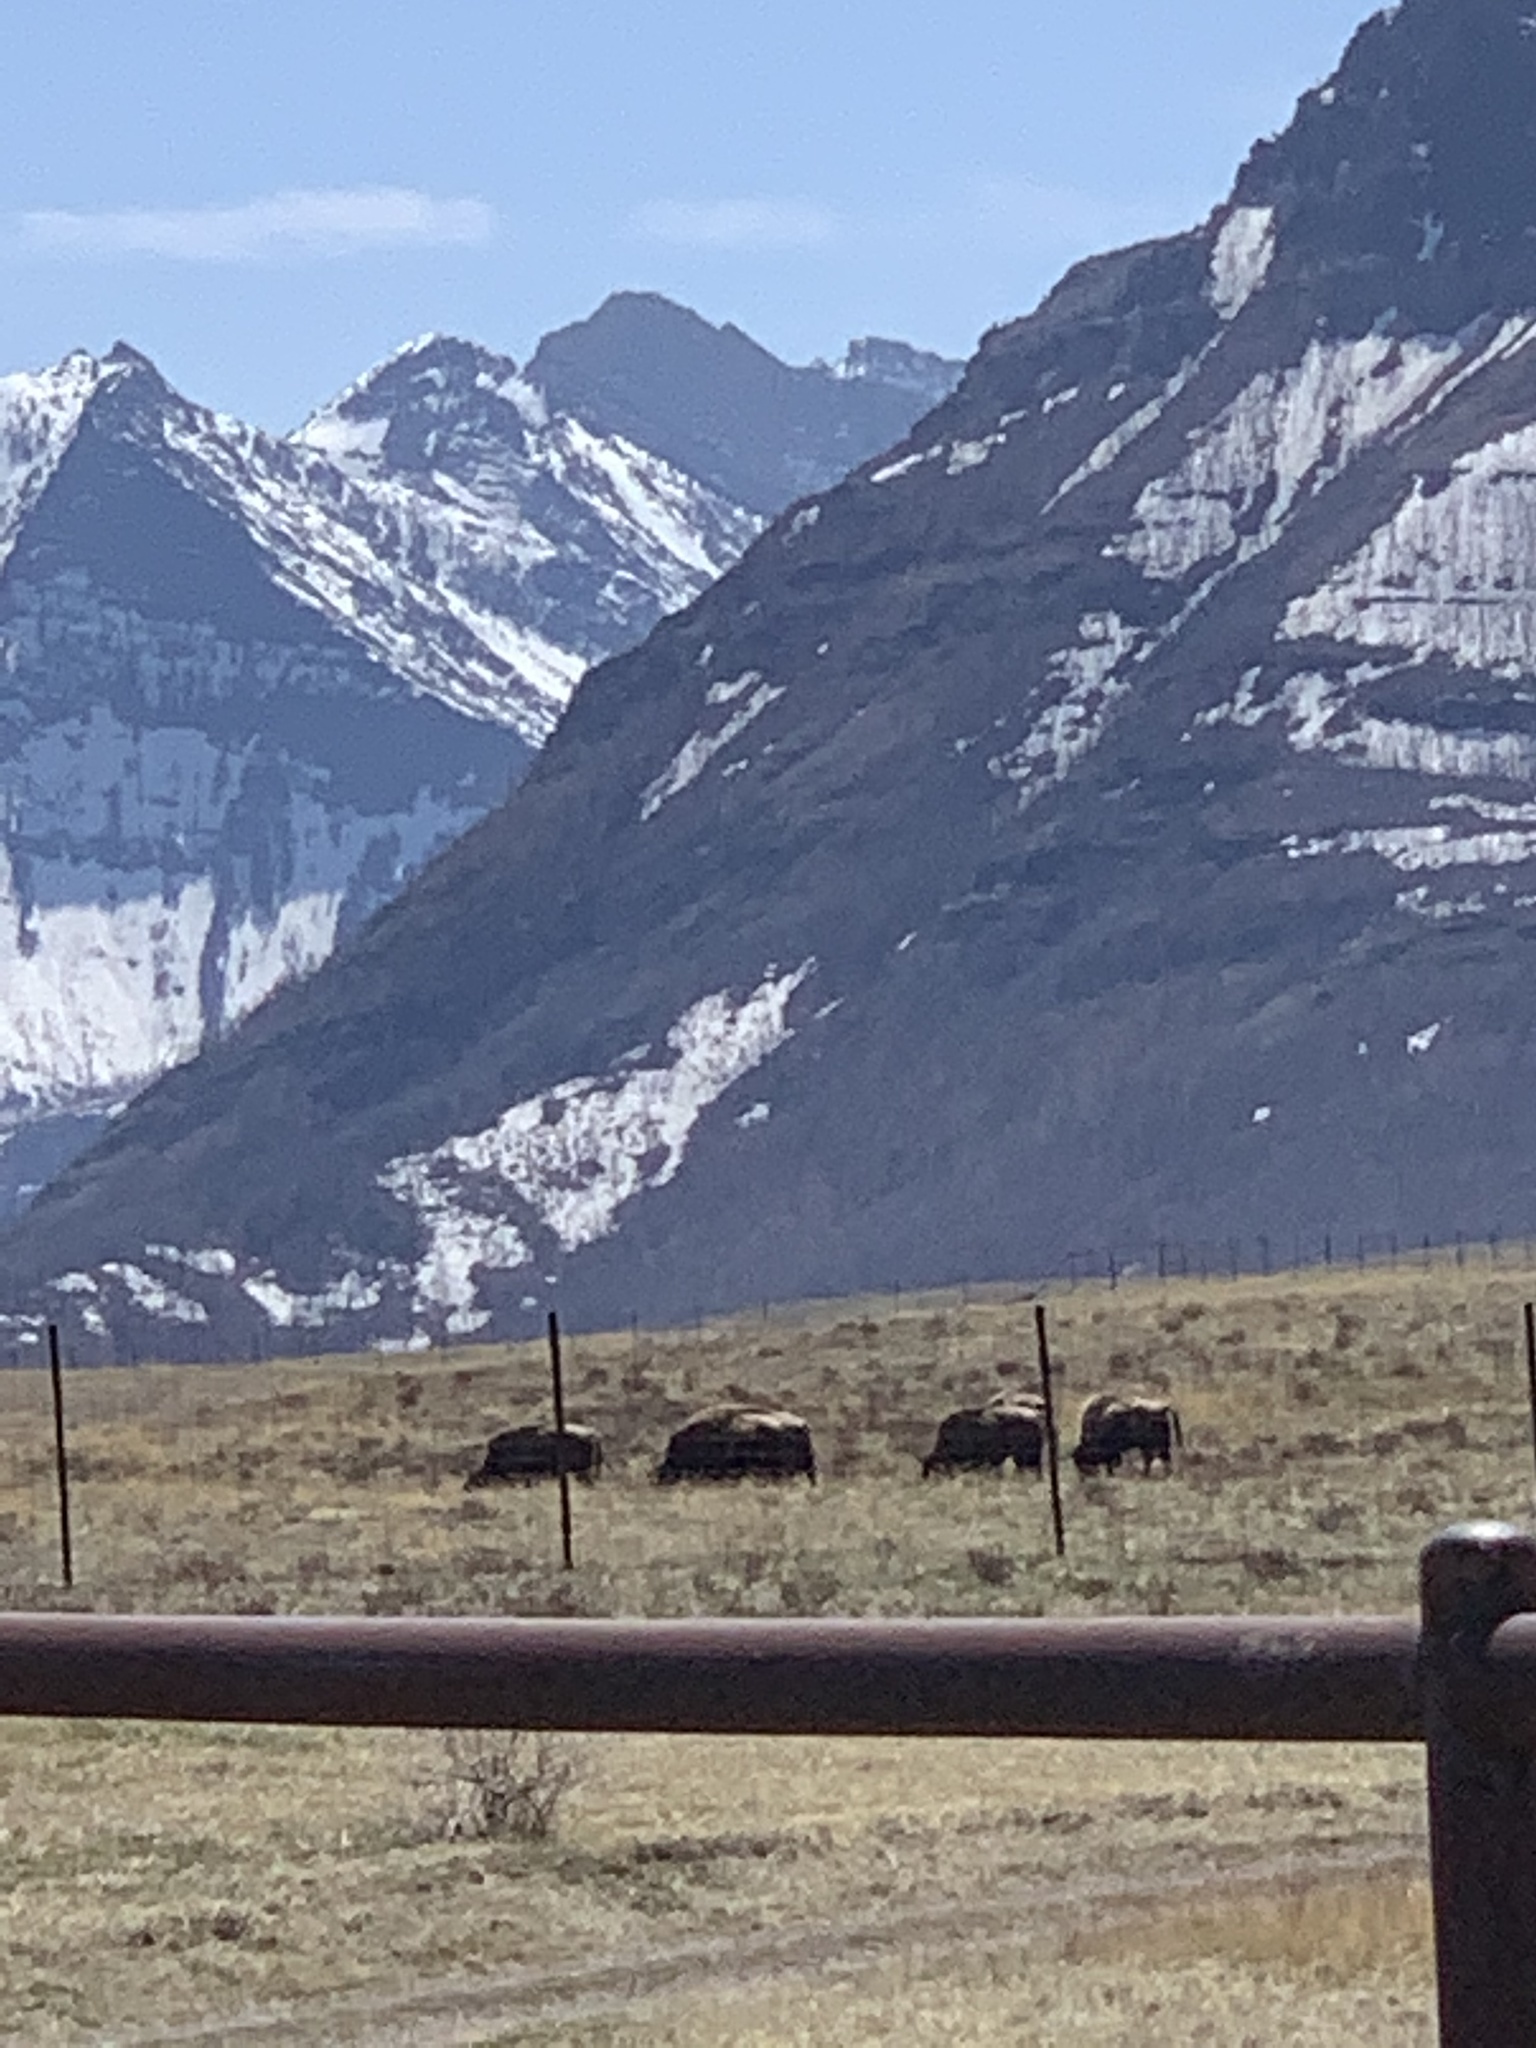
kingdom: Animalia
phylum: Chordata
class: Mammalia
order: Artiodactyla
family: Bovidae
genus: Bison
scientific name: Bison bison
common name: American bison
